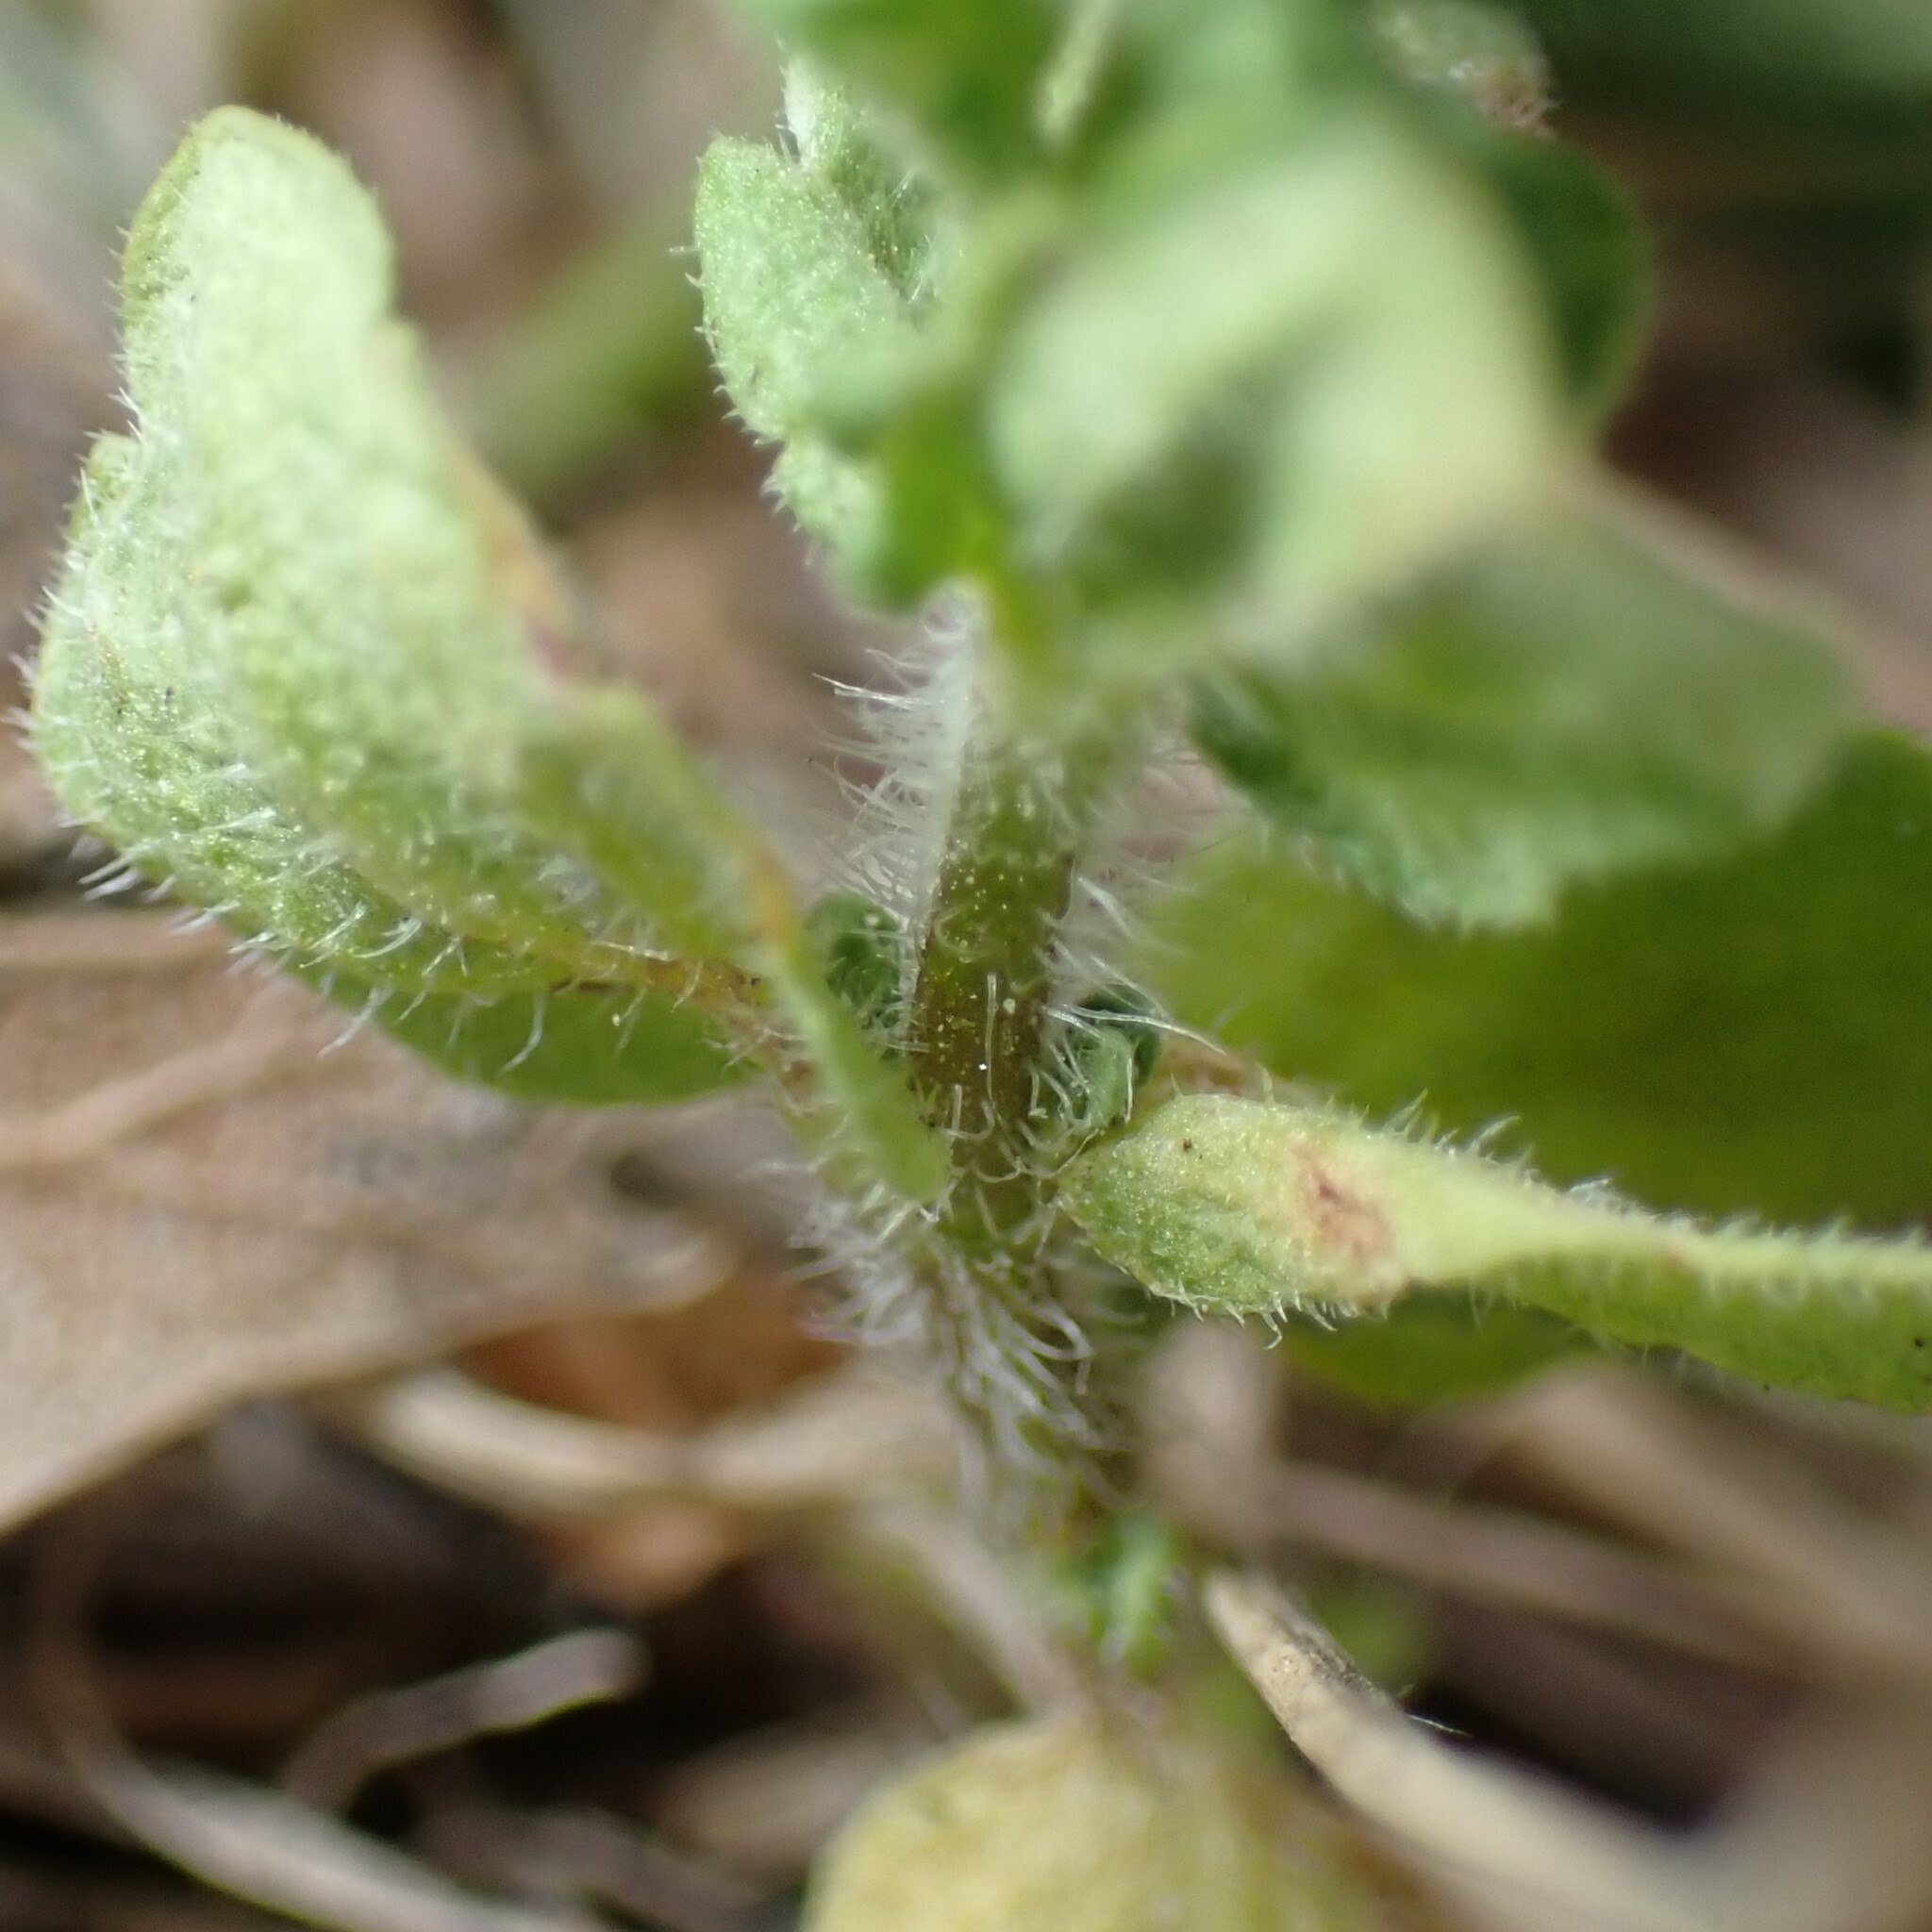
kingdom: Plantae
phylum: Tracheophyta
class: Magnoliopsida
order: Lamiales
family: Plantaginaceae
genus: Veronica
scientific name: Veronica arvensis
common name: Corn speedwell
